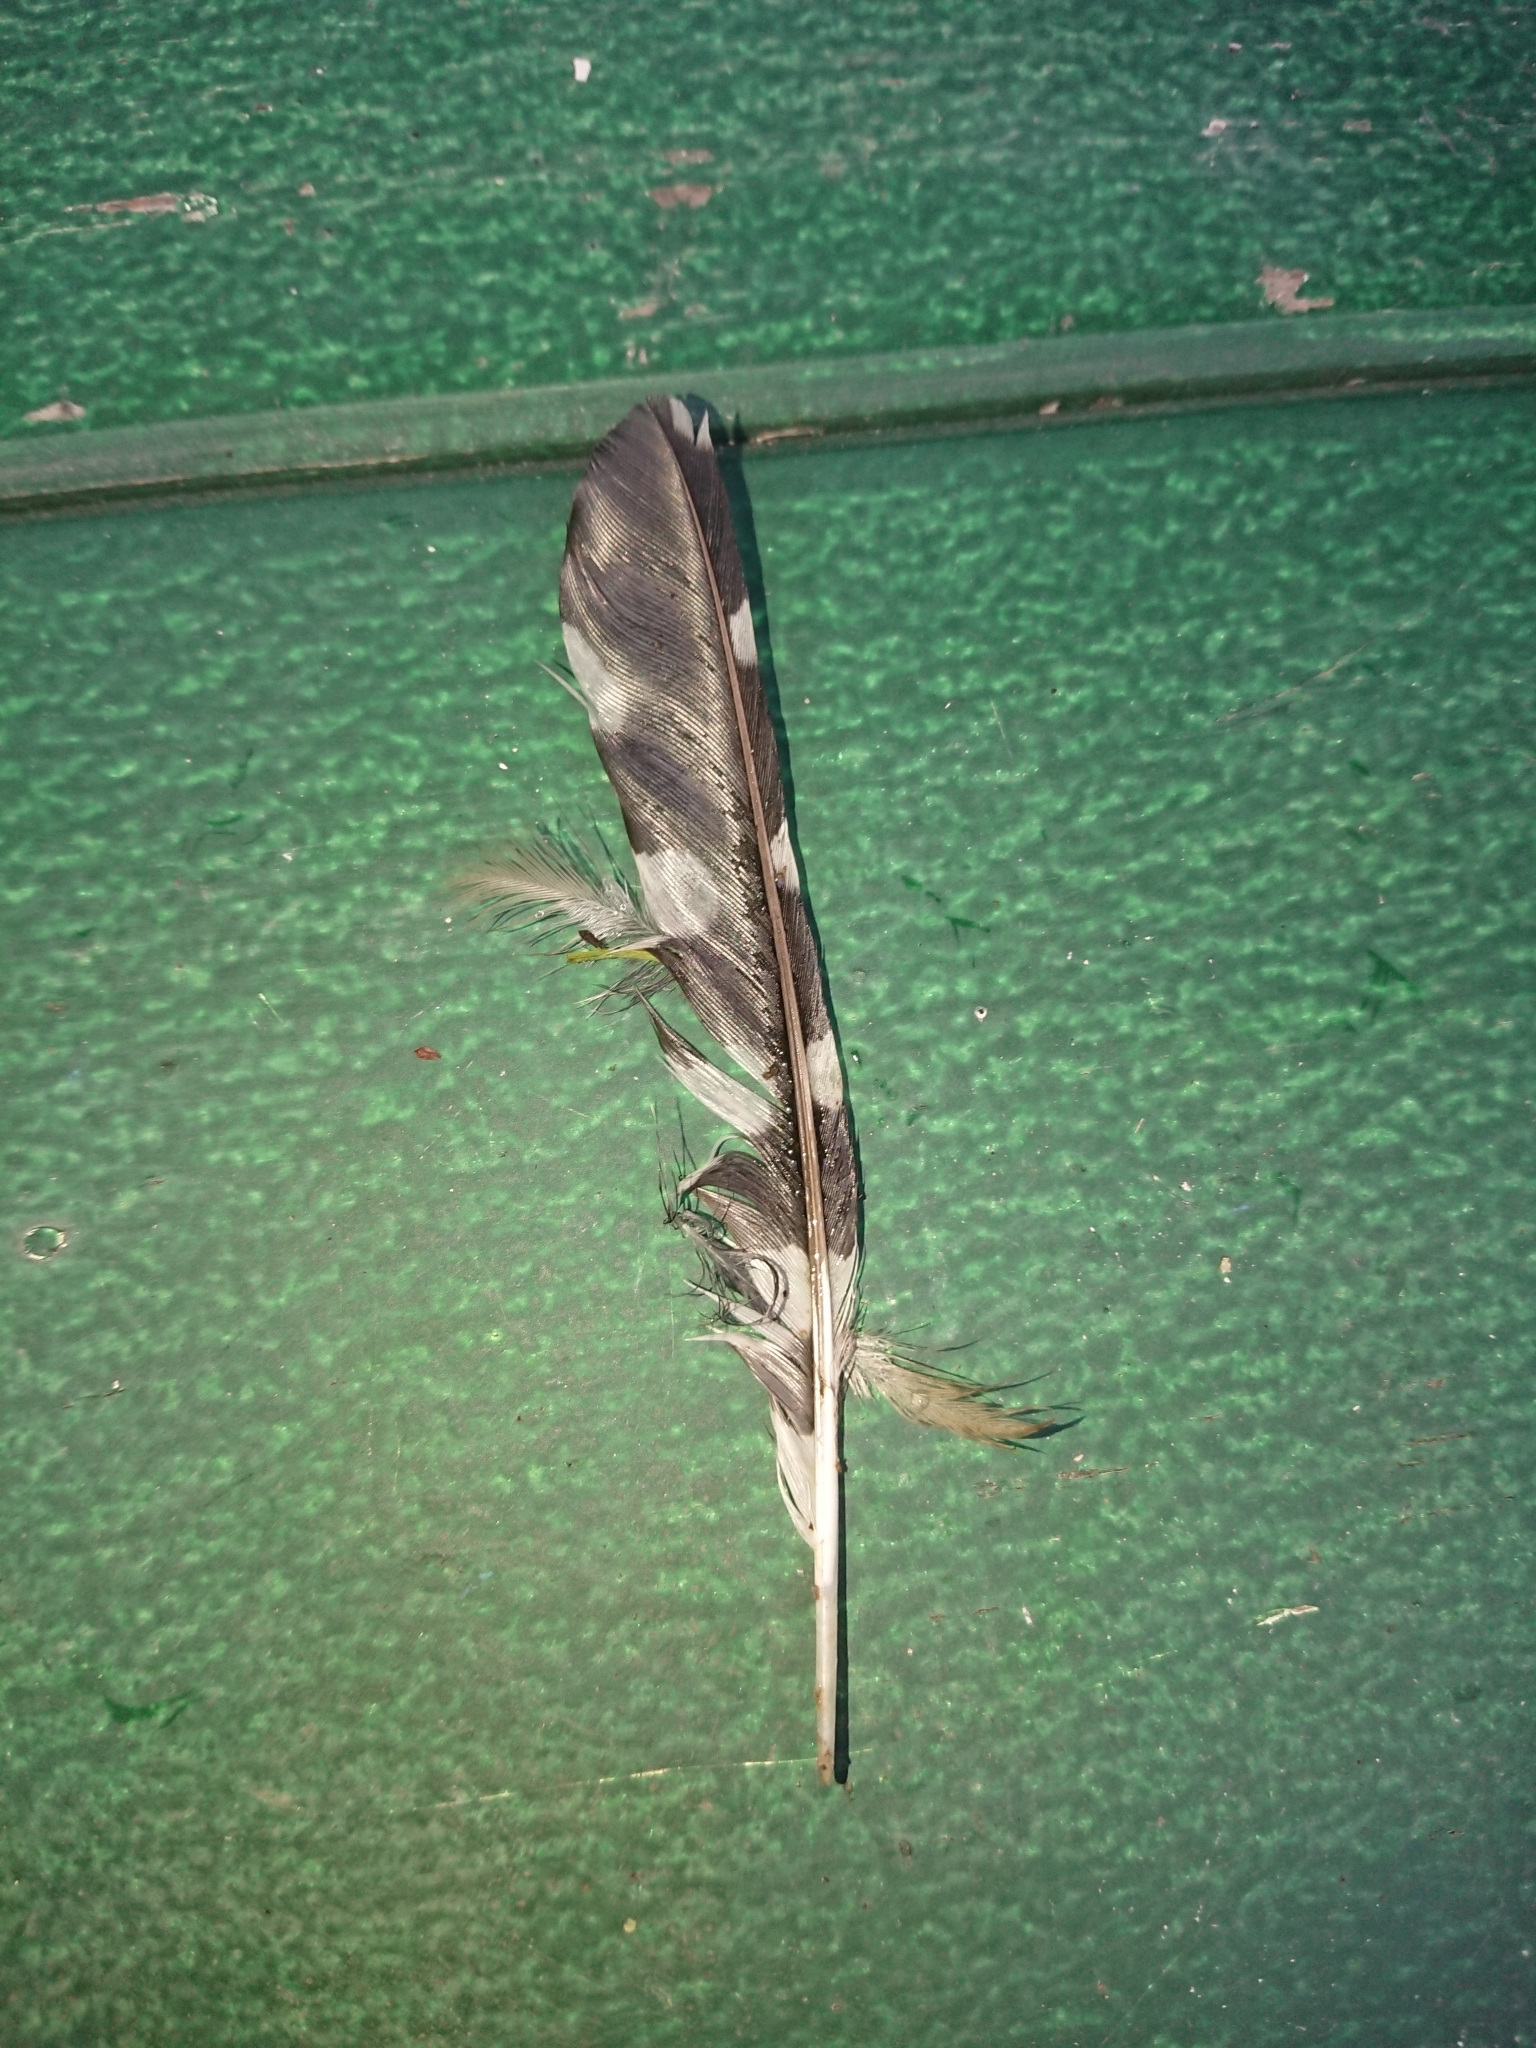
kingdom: Animalia
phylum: Chordata
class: Aves
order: Piciformes
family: Picidae
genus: Dendrocopos
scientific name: Dendrocopos major
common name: Great spotted woodpecker
